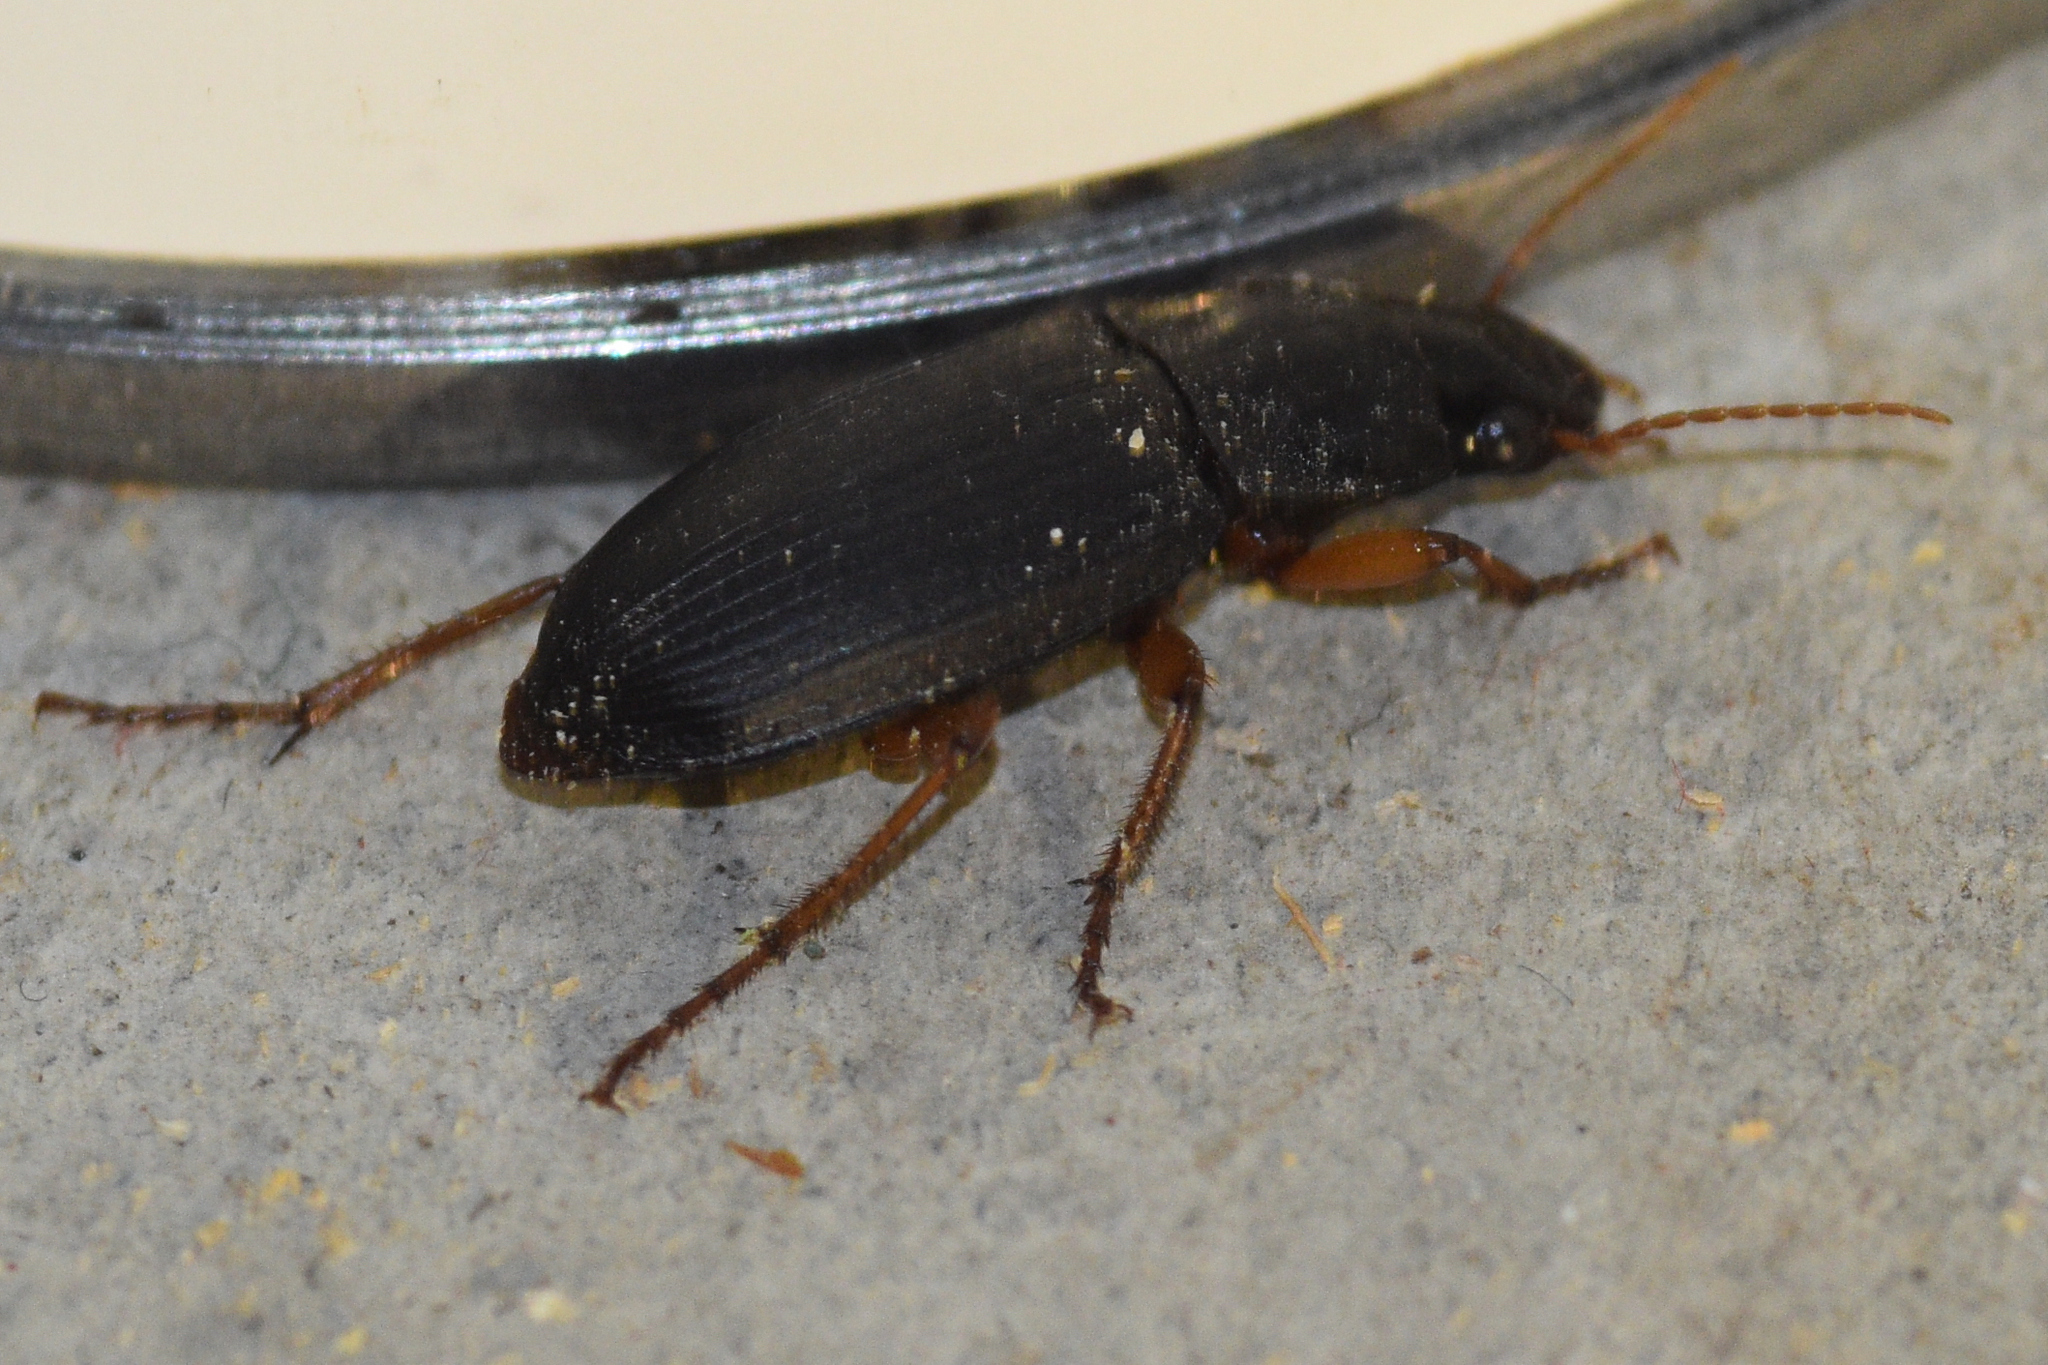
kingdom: Animalia
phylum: Arthropoda
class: Insecta
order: Coleoptera
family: Carabidae
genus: Harpalus
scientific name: Harpalus rufipes
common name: Strawberry harp ground beetle
